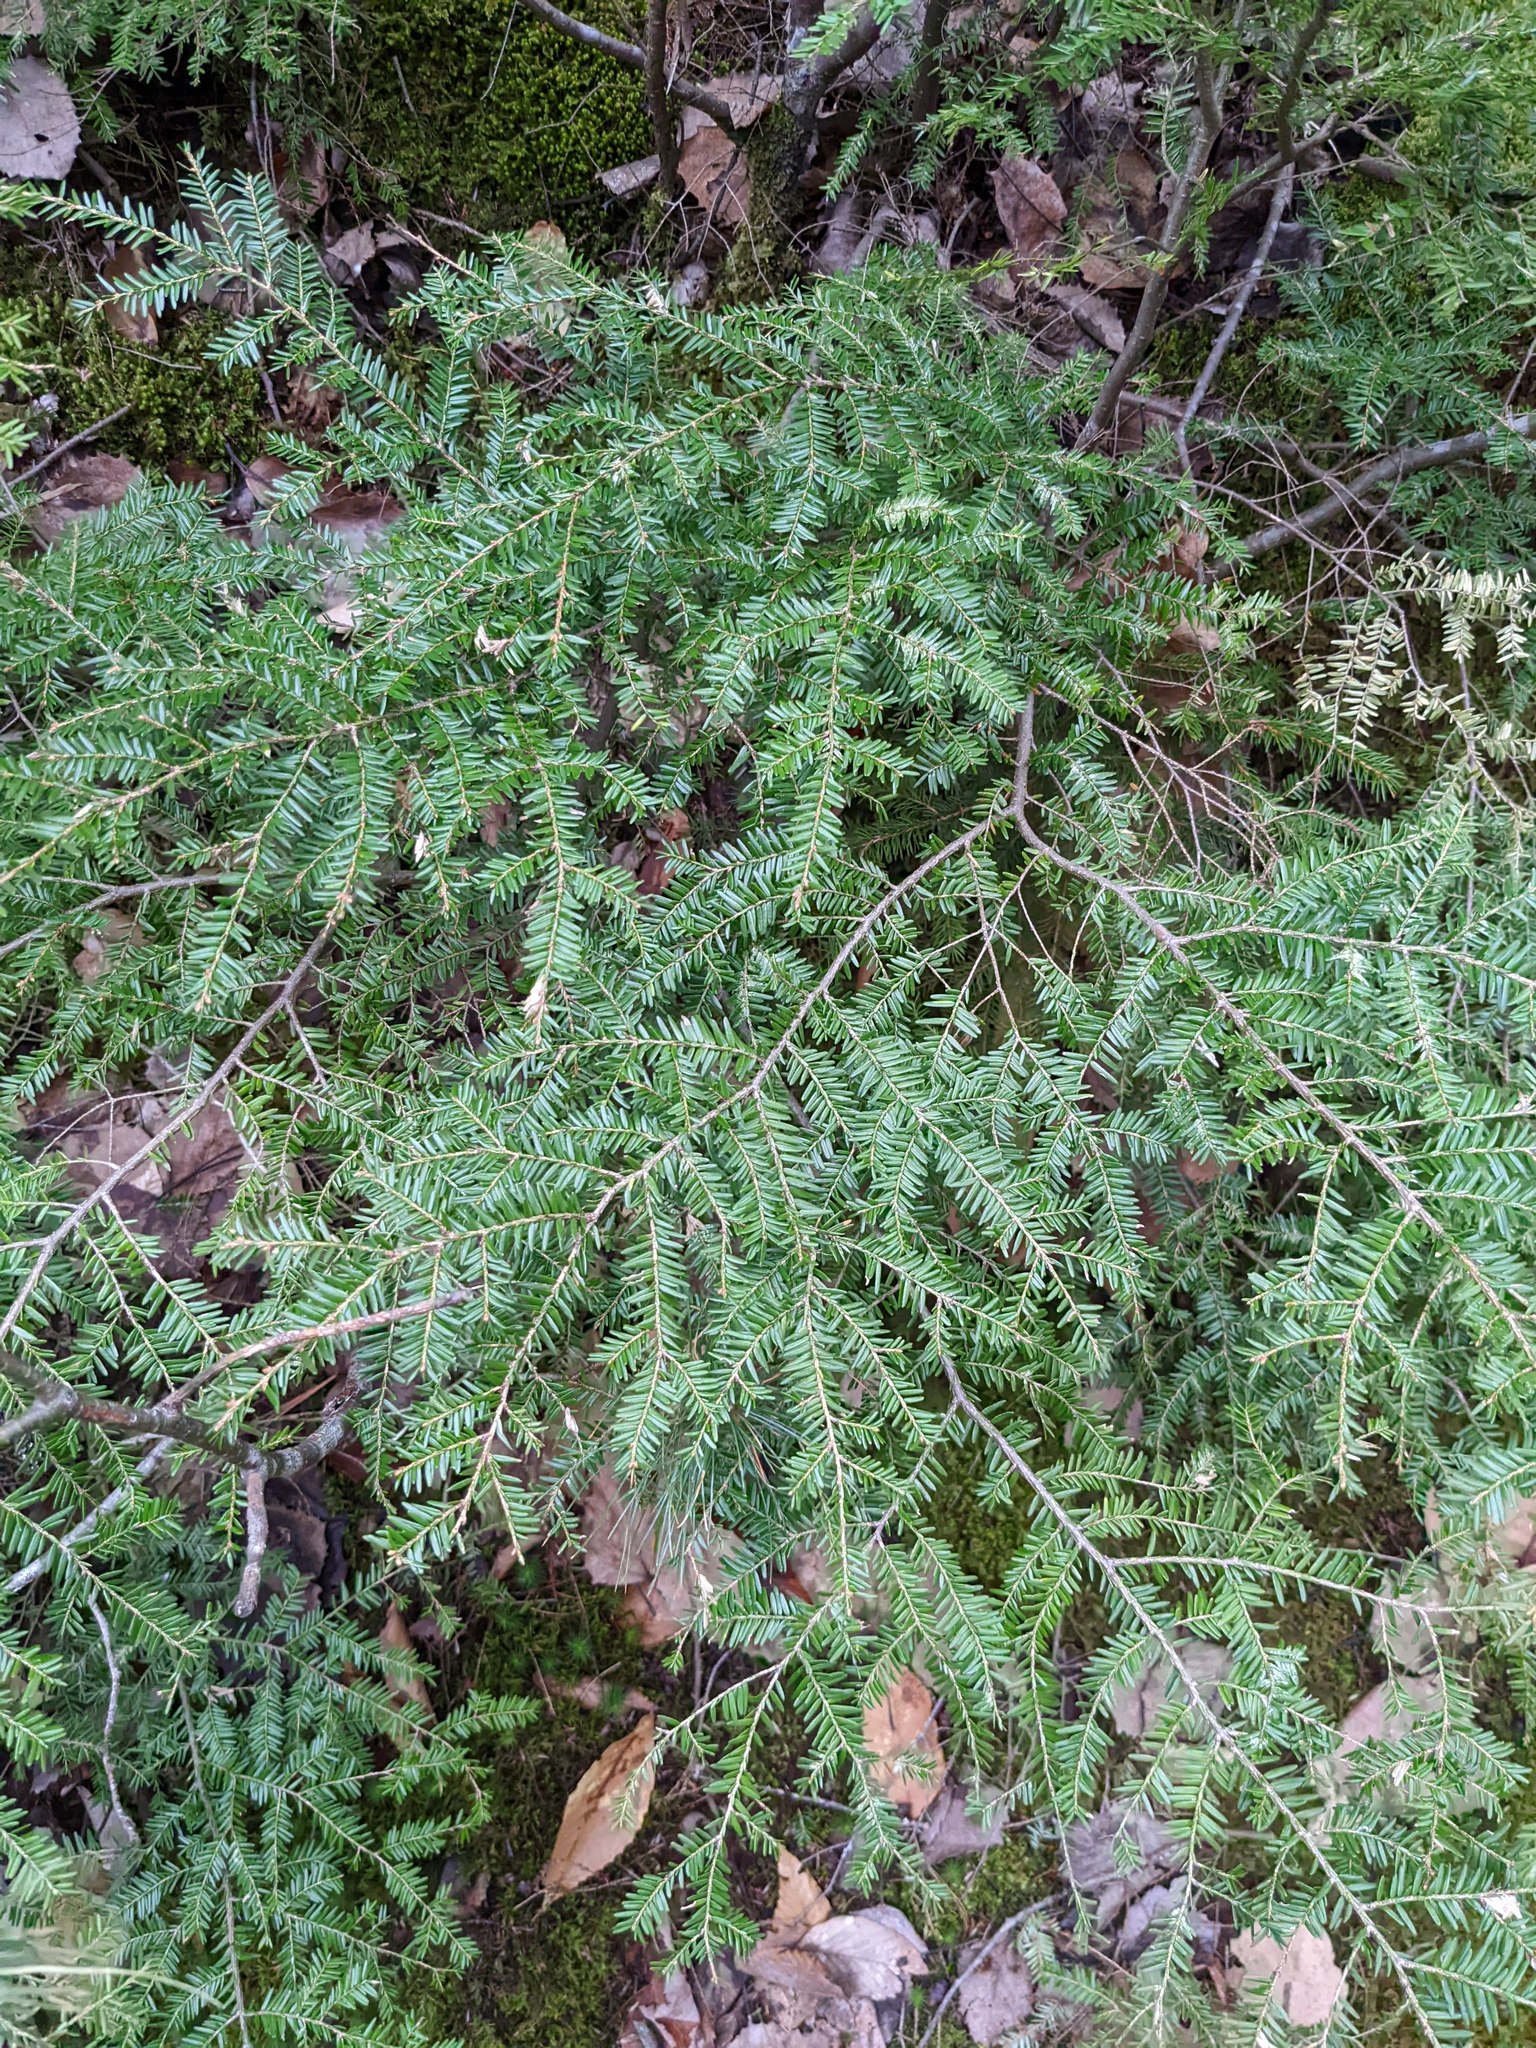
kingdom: Plantae
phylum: Tracheophyta
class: Pinopsida
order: Pinales
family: Pinaceae
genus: Tsuga
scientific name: Tsuga canadensis
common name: Eastern hemlock
